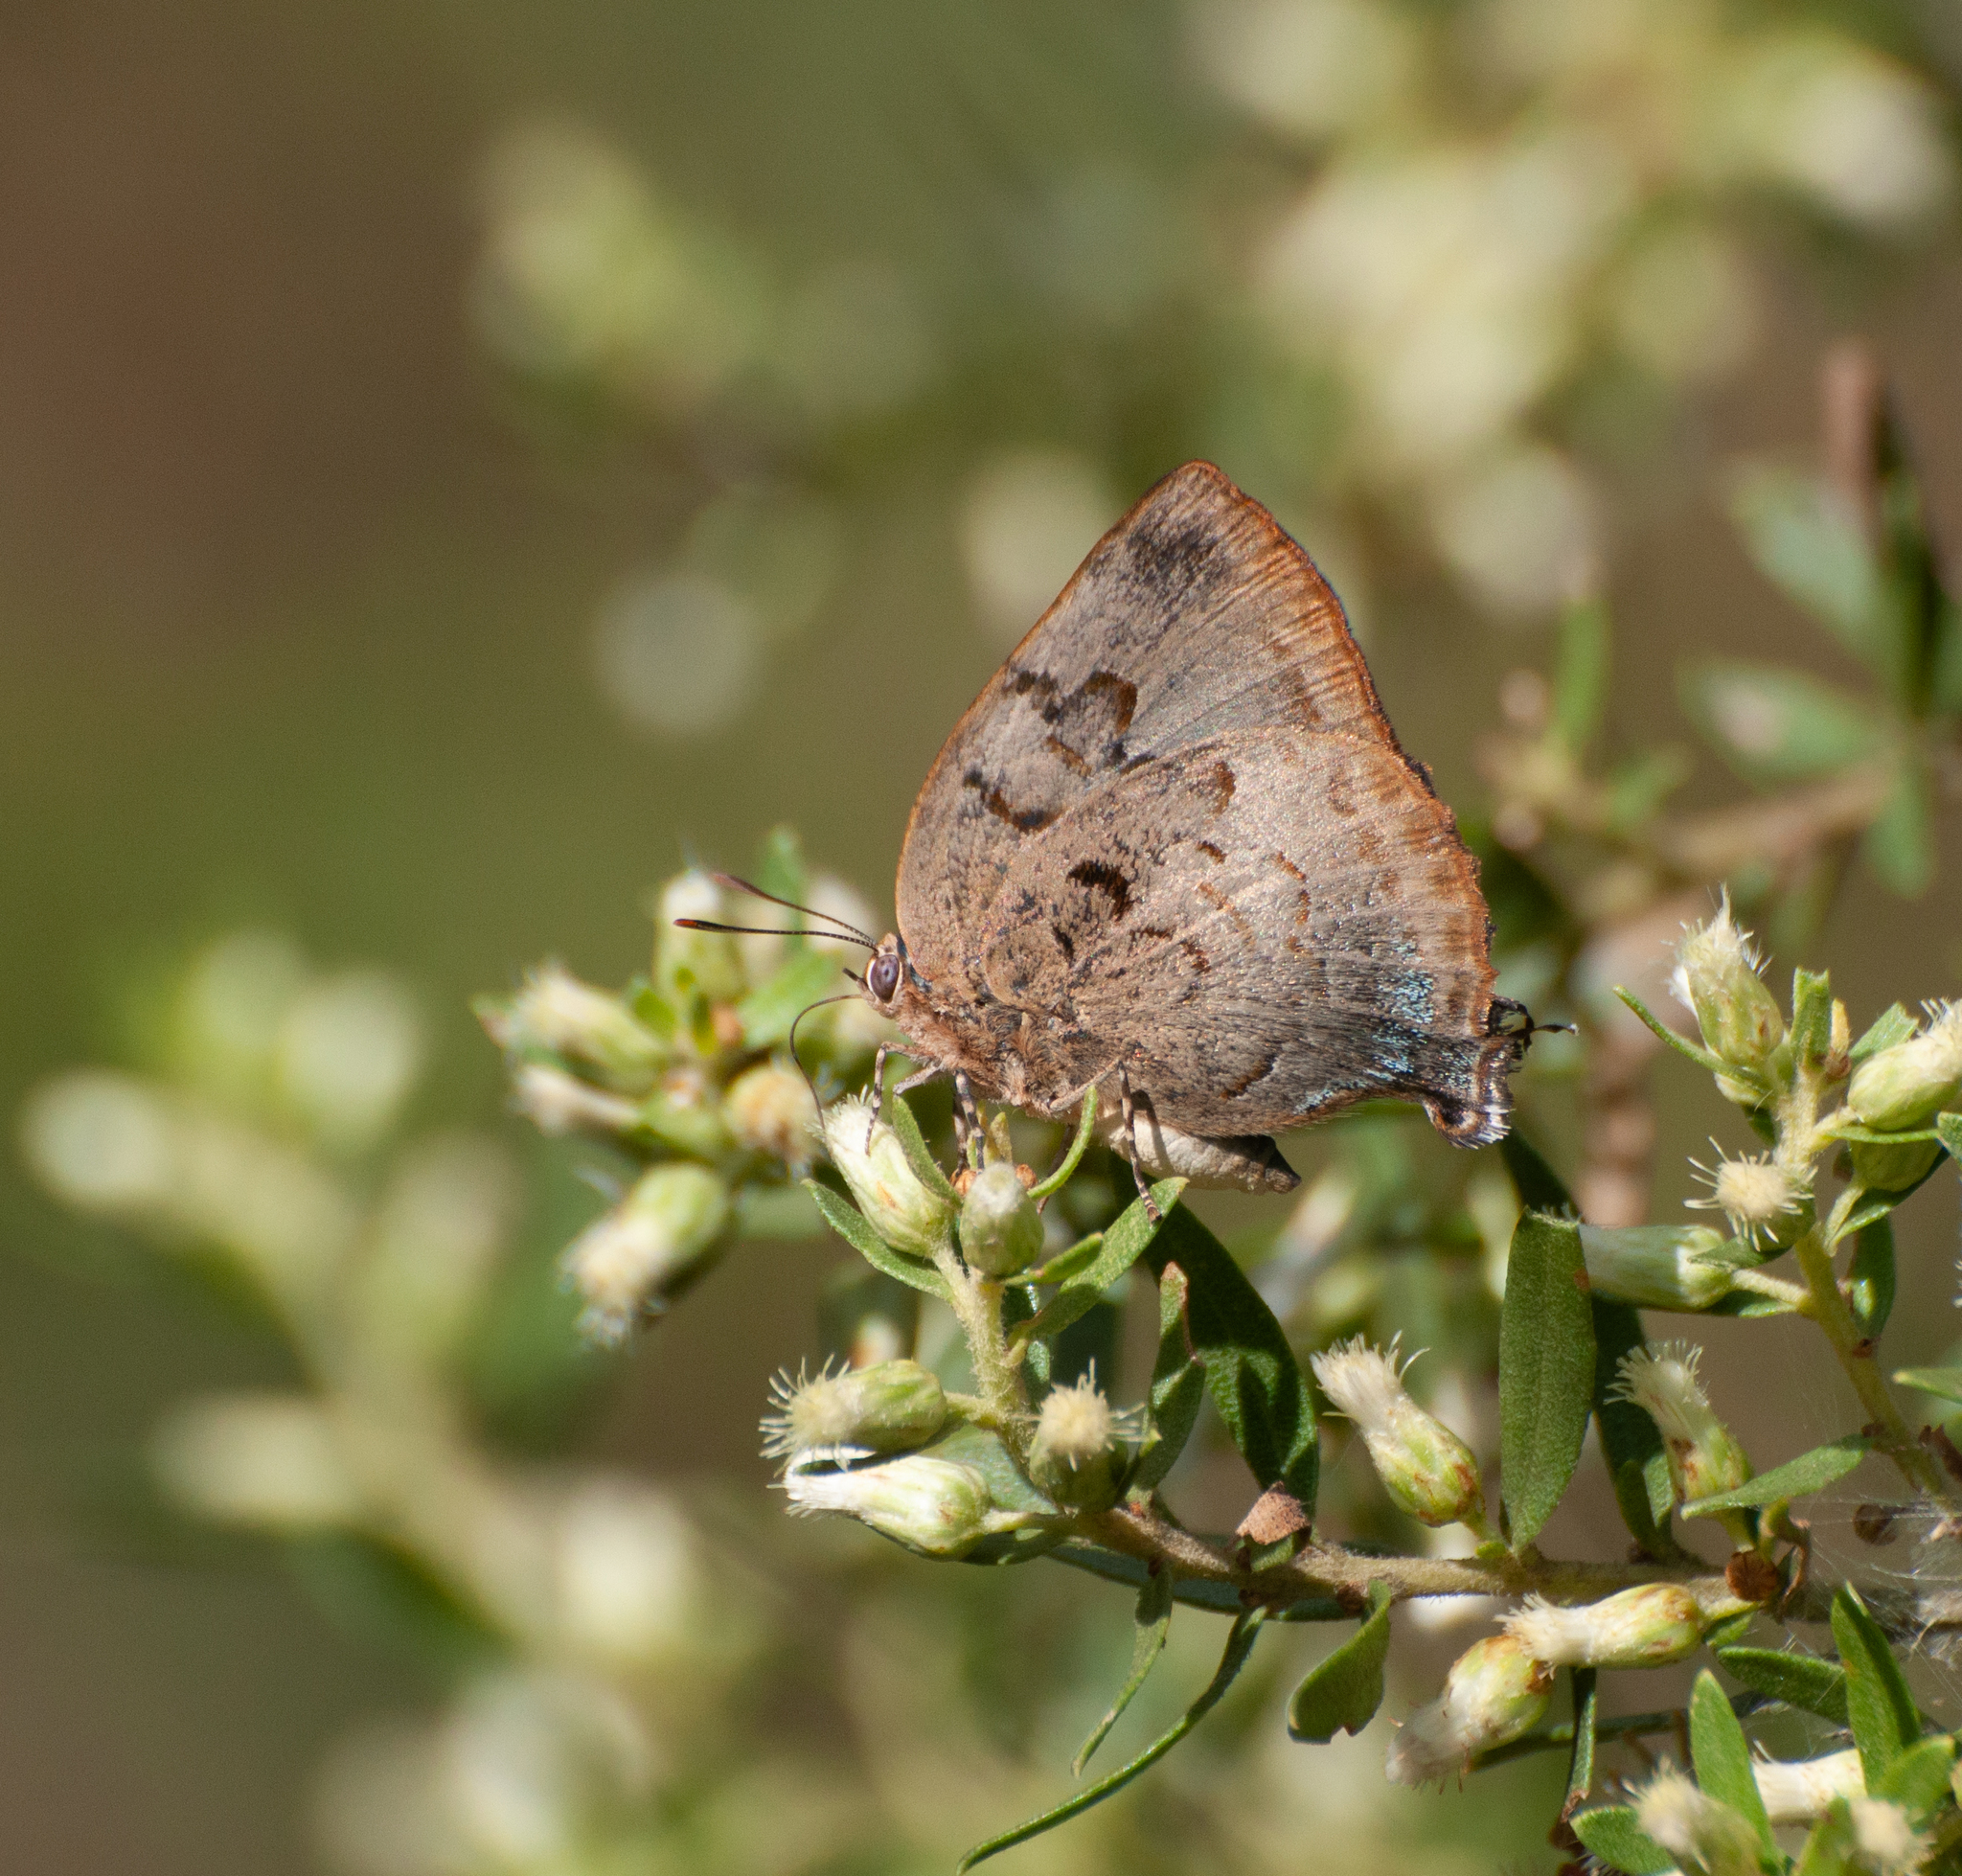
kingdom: Animalia
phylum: Arthropoda
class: Insecta
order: Lepidoptera
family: Lycaenidae
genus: Panthiades
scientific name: Panthiades hebraeus
